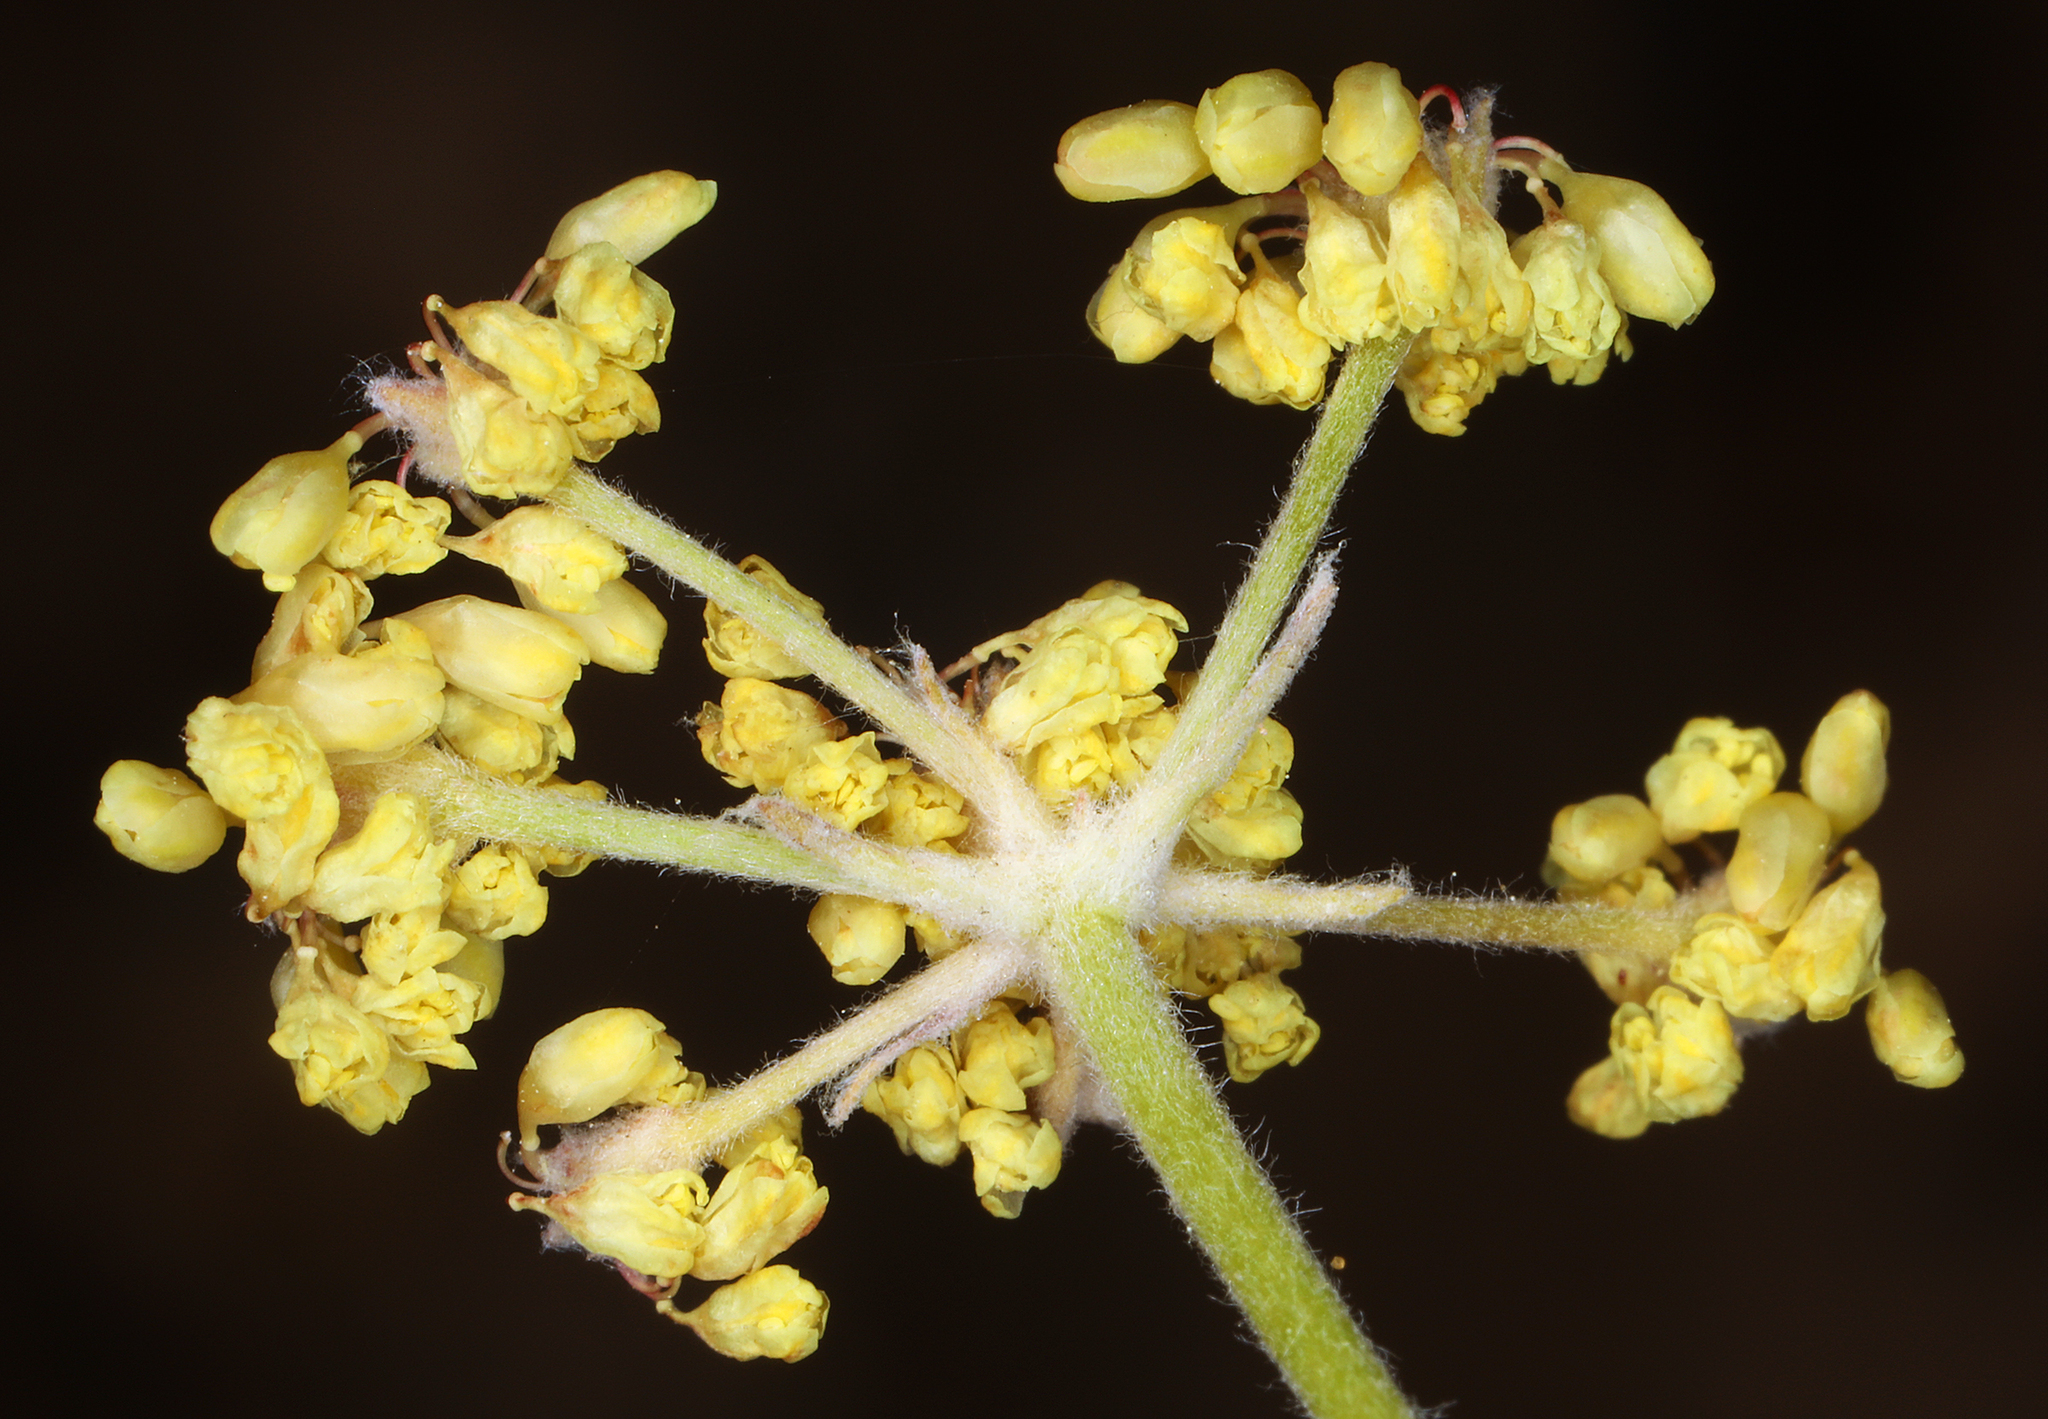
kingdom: Plantae
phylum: Tracheophyta
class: Magnoliopsida
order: Caryophyllales
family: Polygonaceae
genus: Eriogonum
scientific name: Eriogonum incanum
